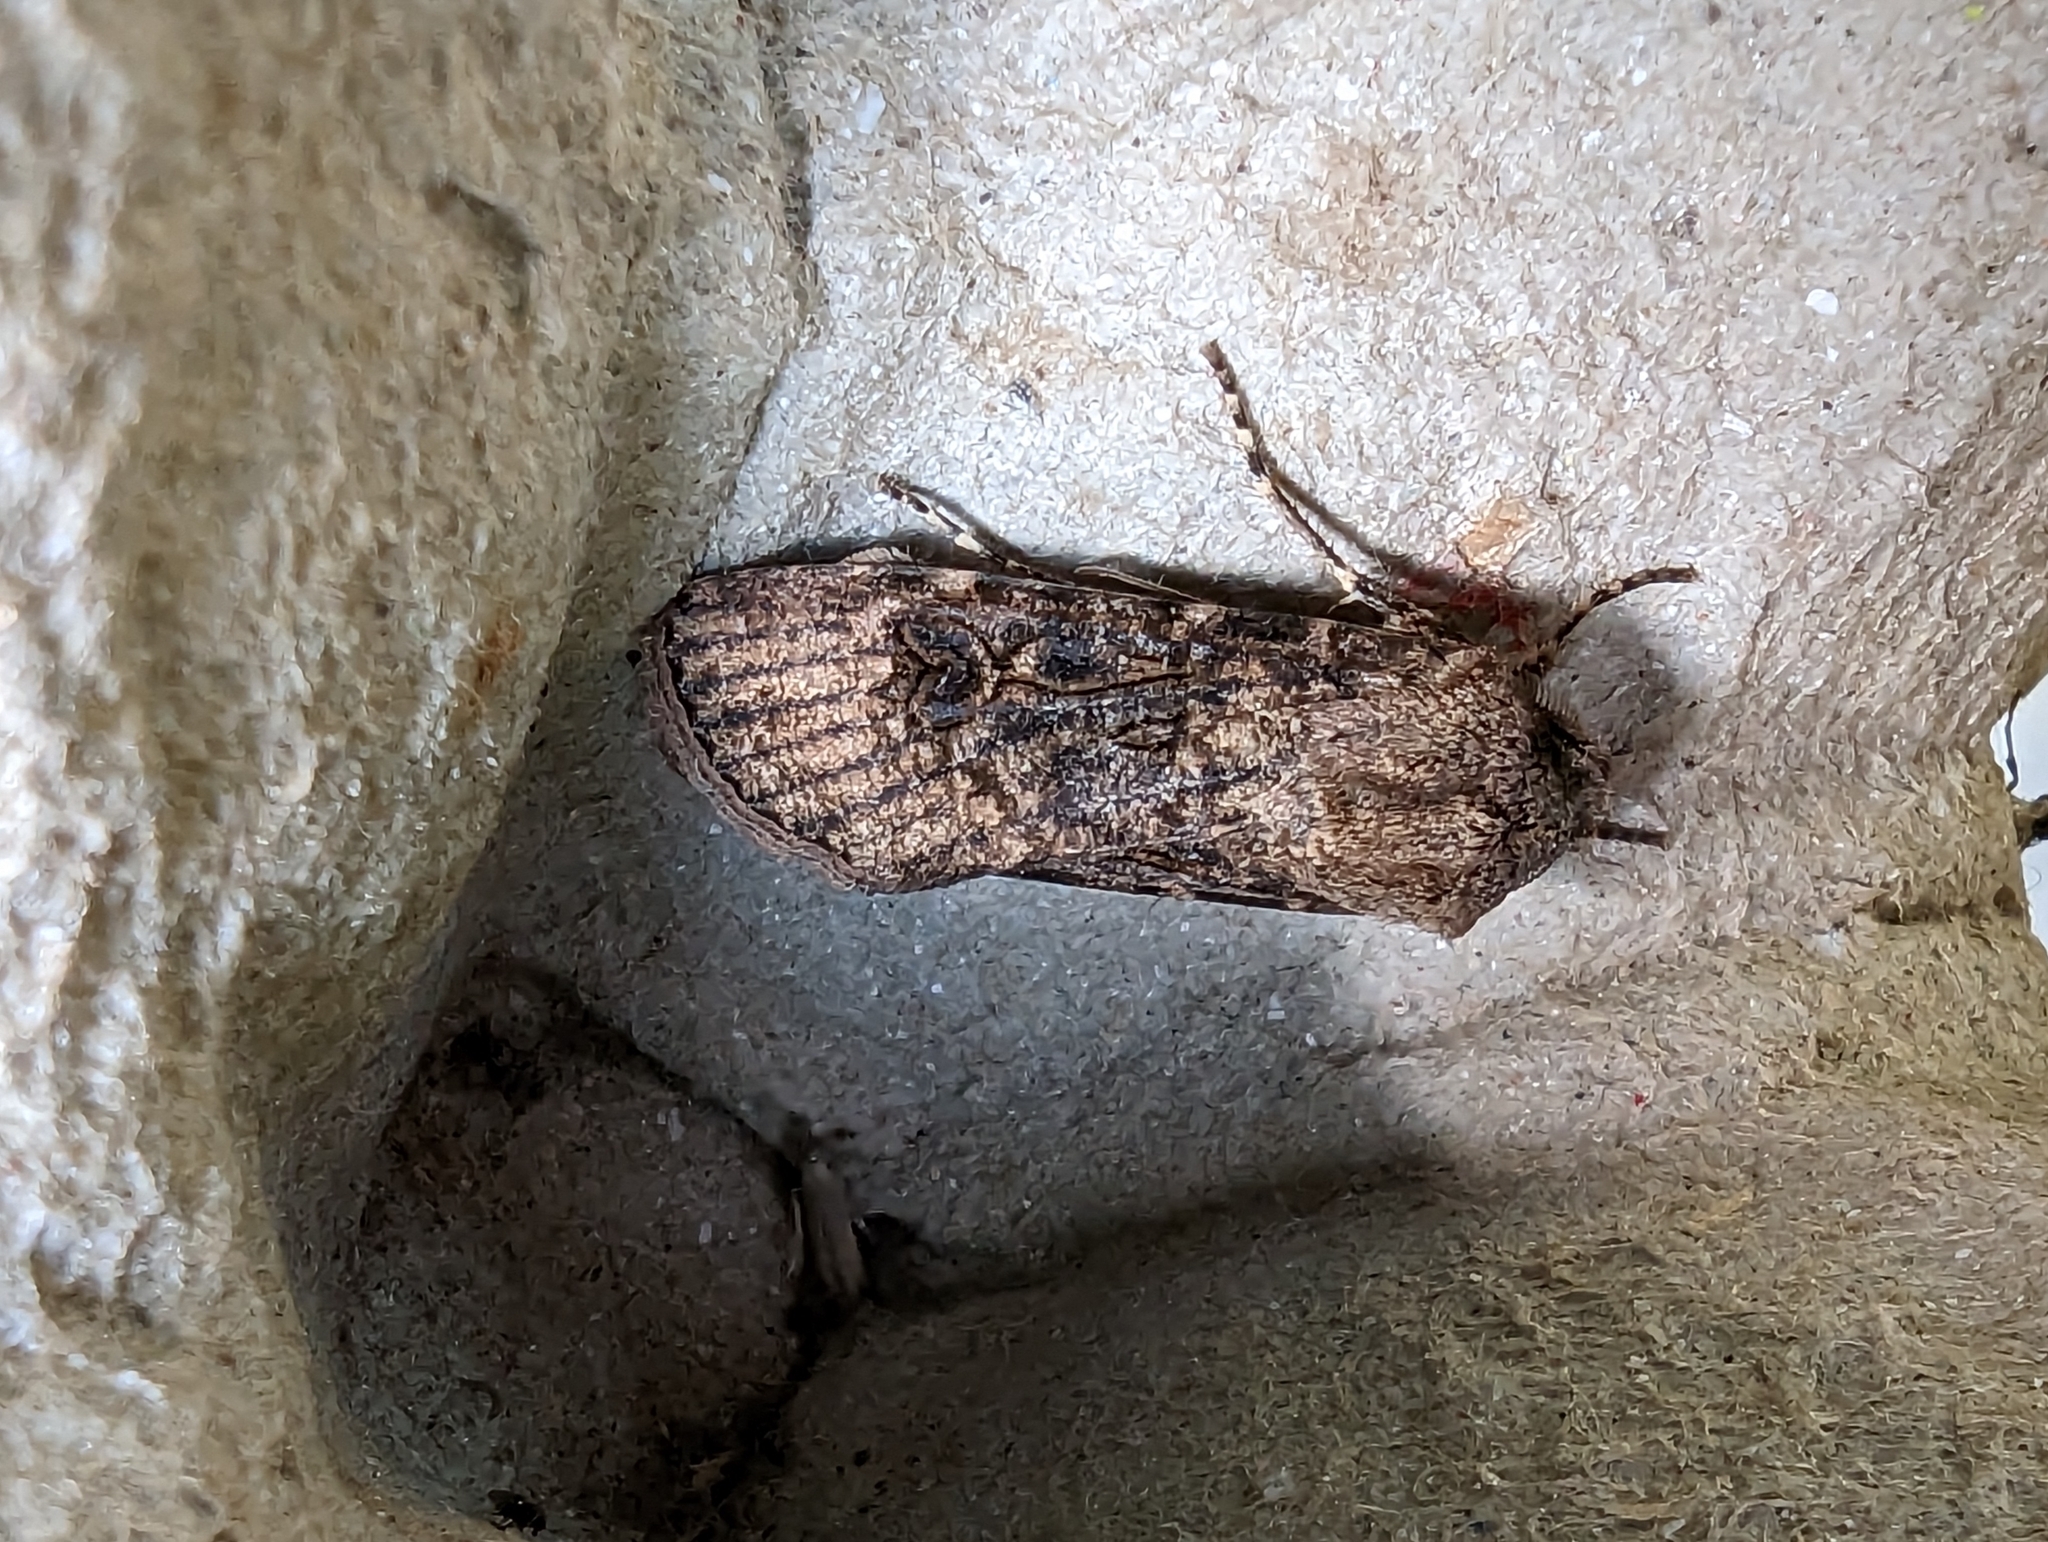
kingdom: Animalia
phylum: Arthropoda
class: Insecta
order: Lepidoptera
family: Noctuidae
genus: Agrotis
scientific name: Agrotis segetum
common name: Turnip moth
